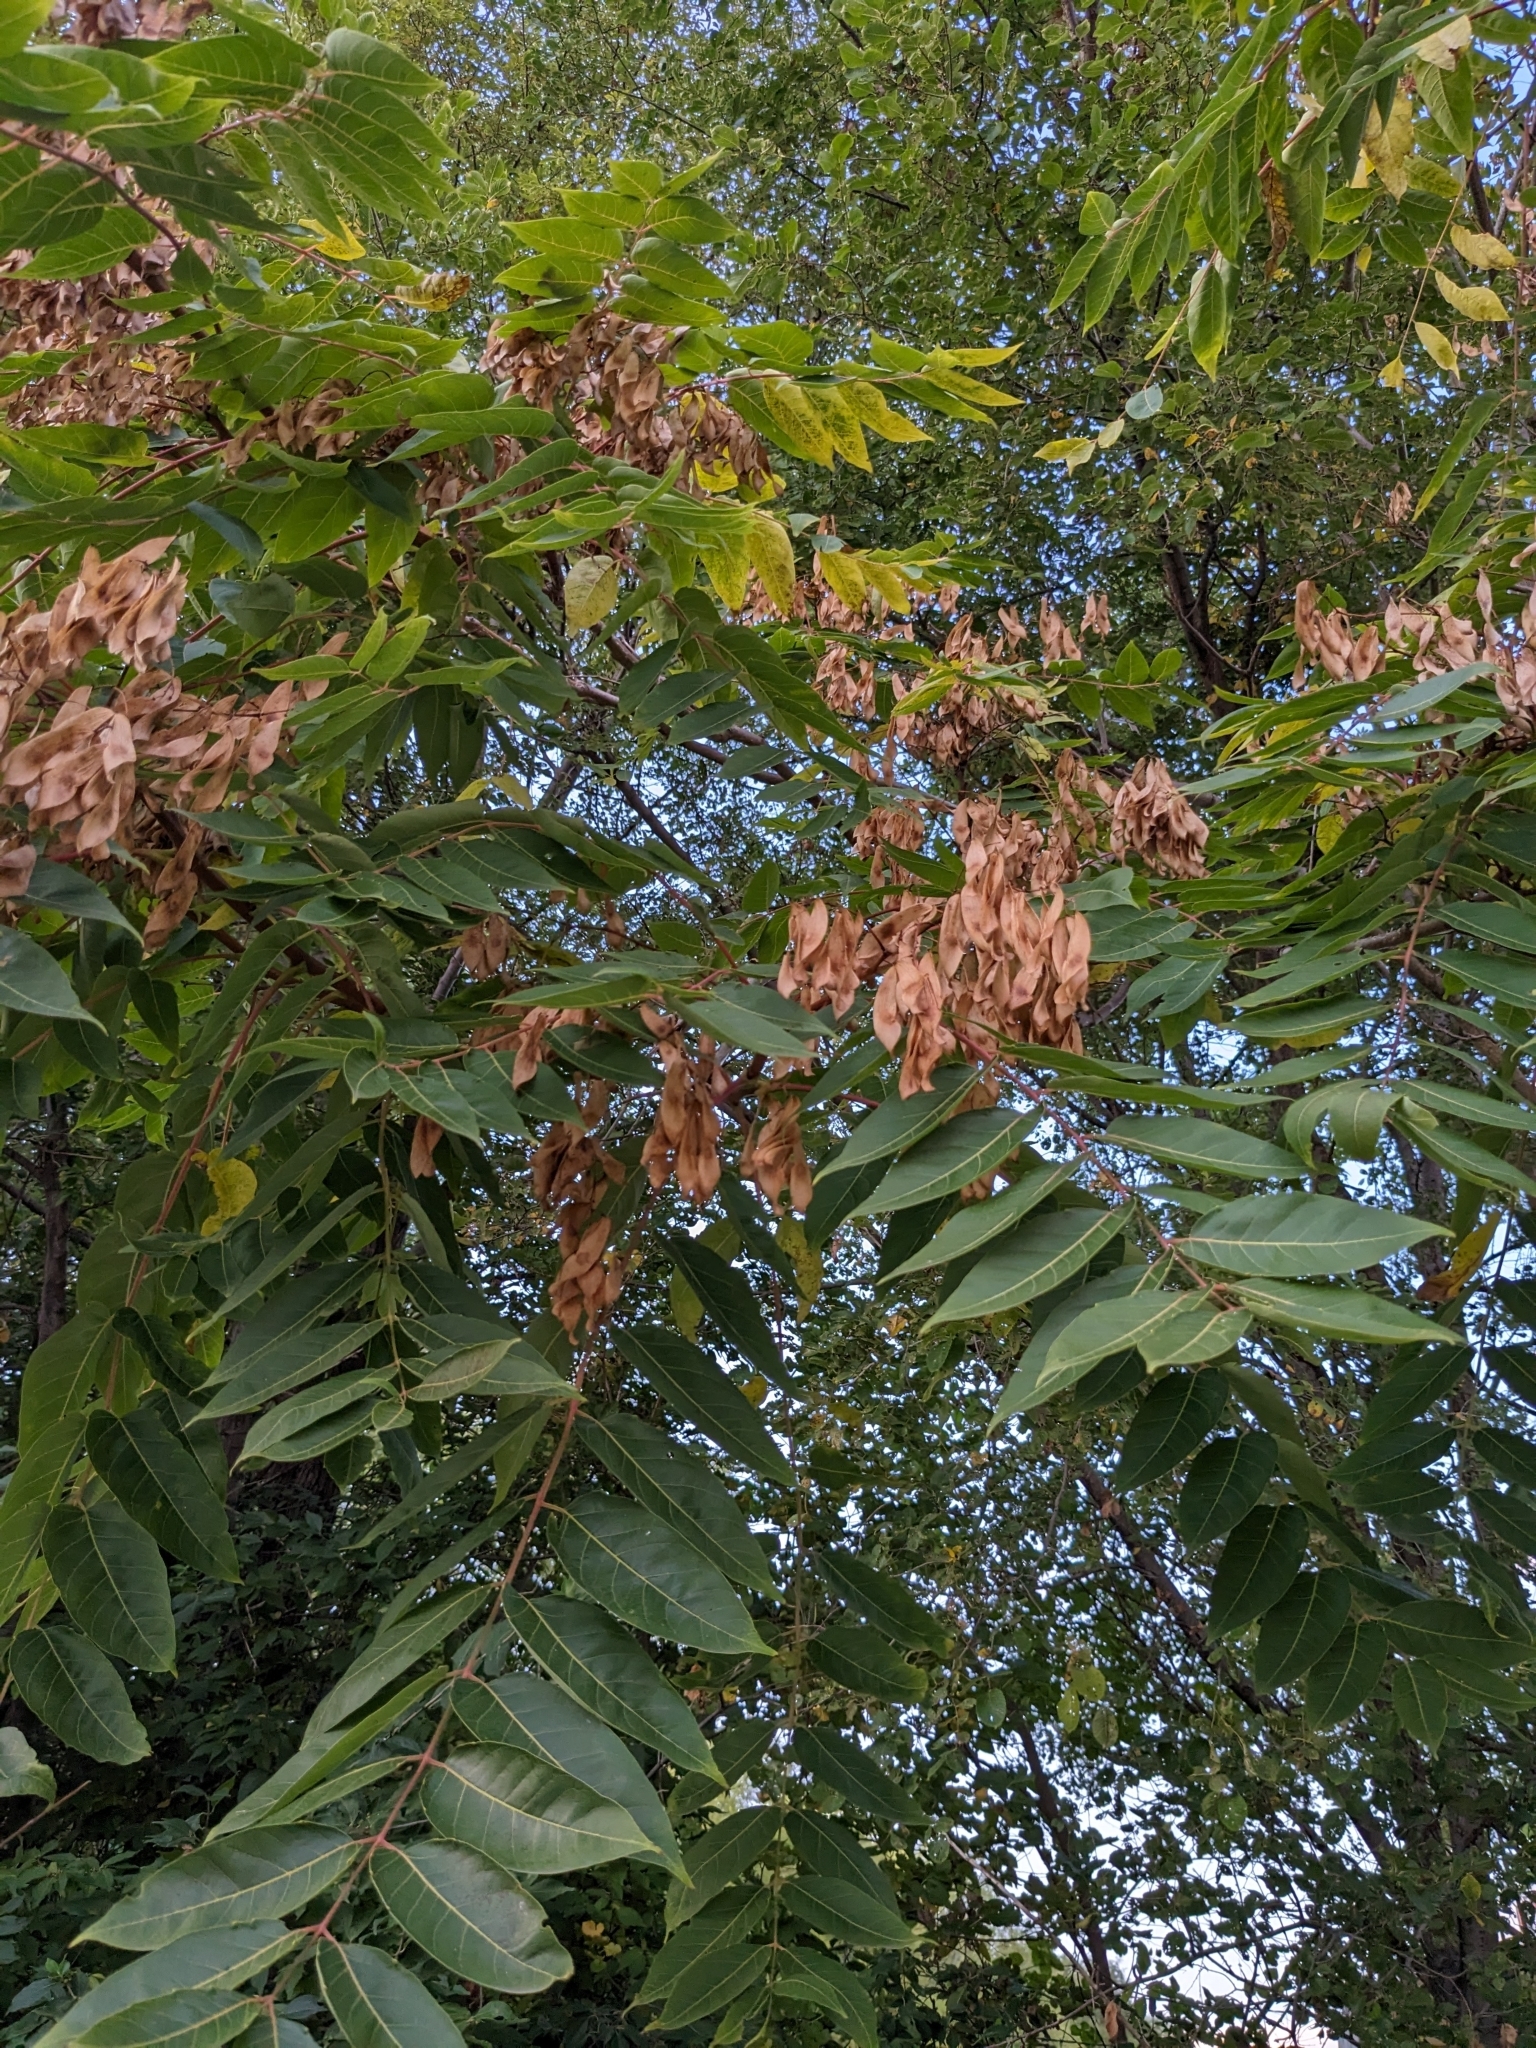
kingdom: Plantae
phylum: Tracheophyta
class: Magnoliopsida
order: Sapindales
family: Simaroubaceae
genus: Ailanthus
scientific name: Ailanthus altissima
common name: Tree-of-heaven
